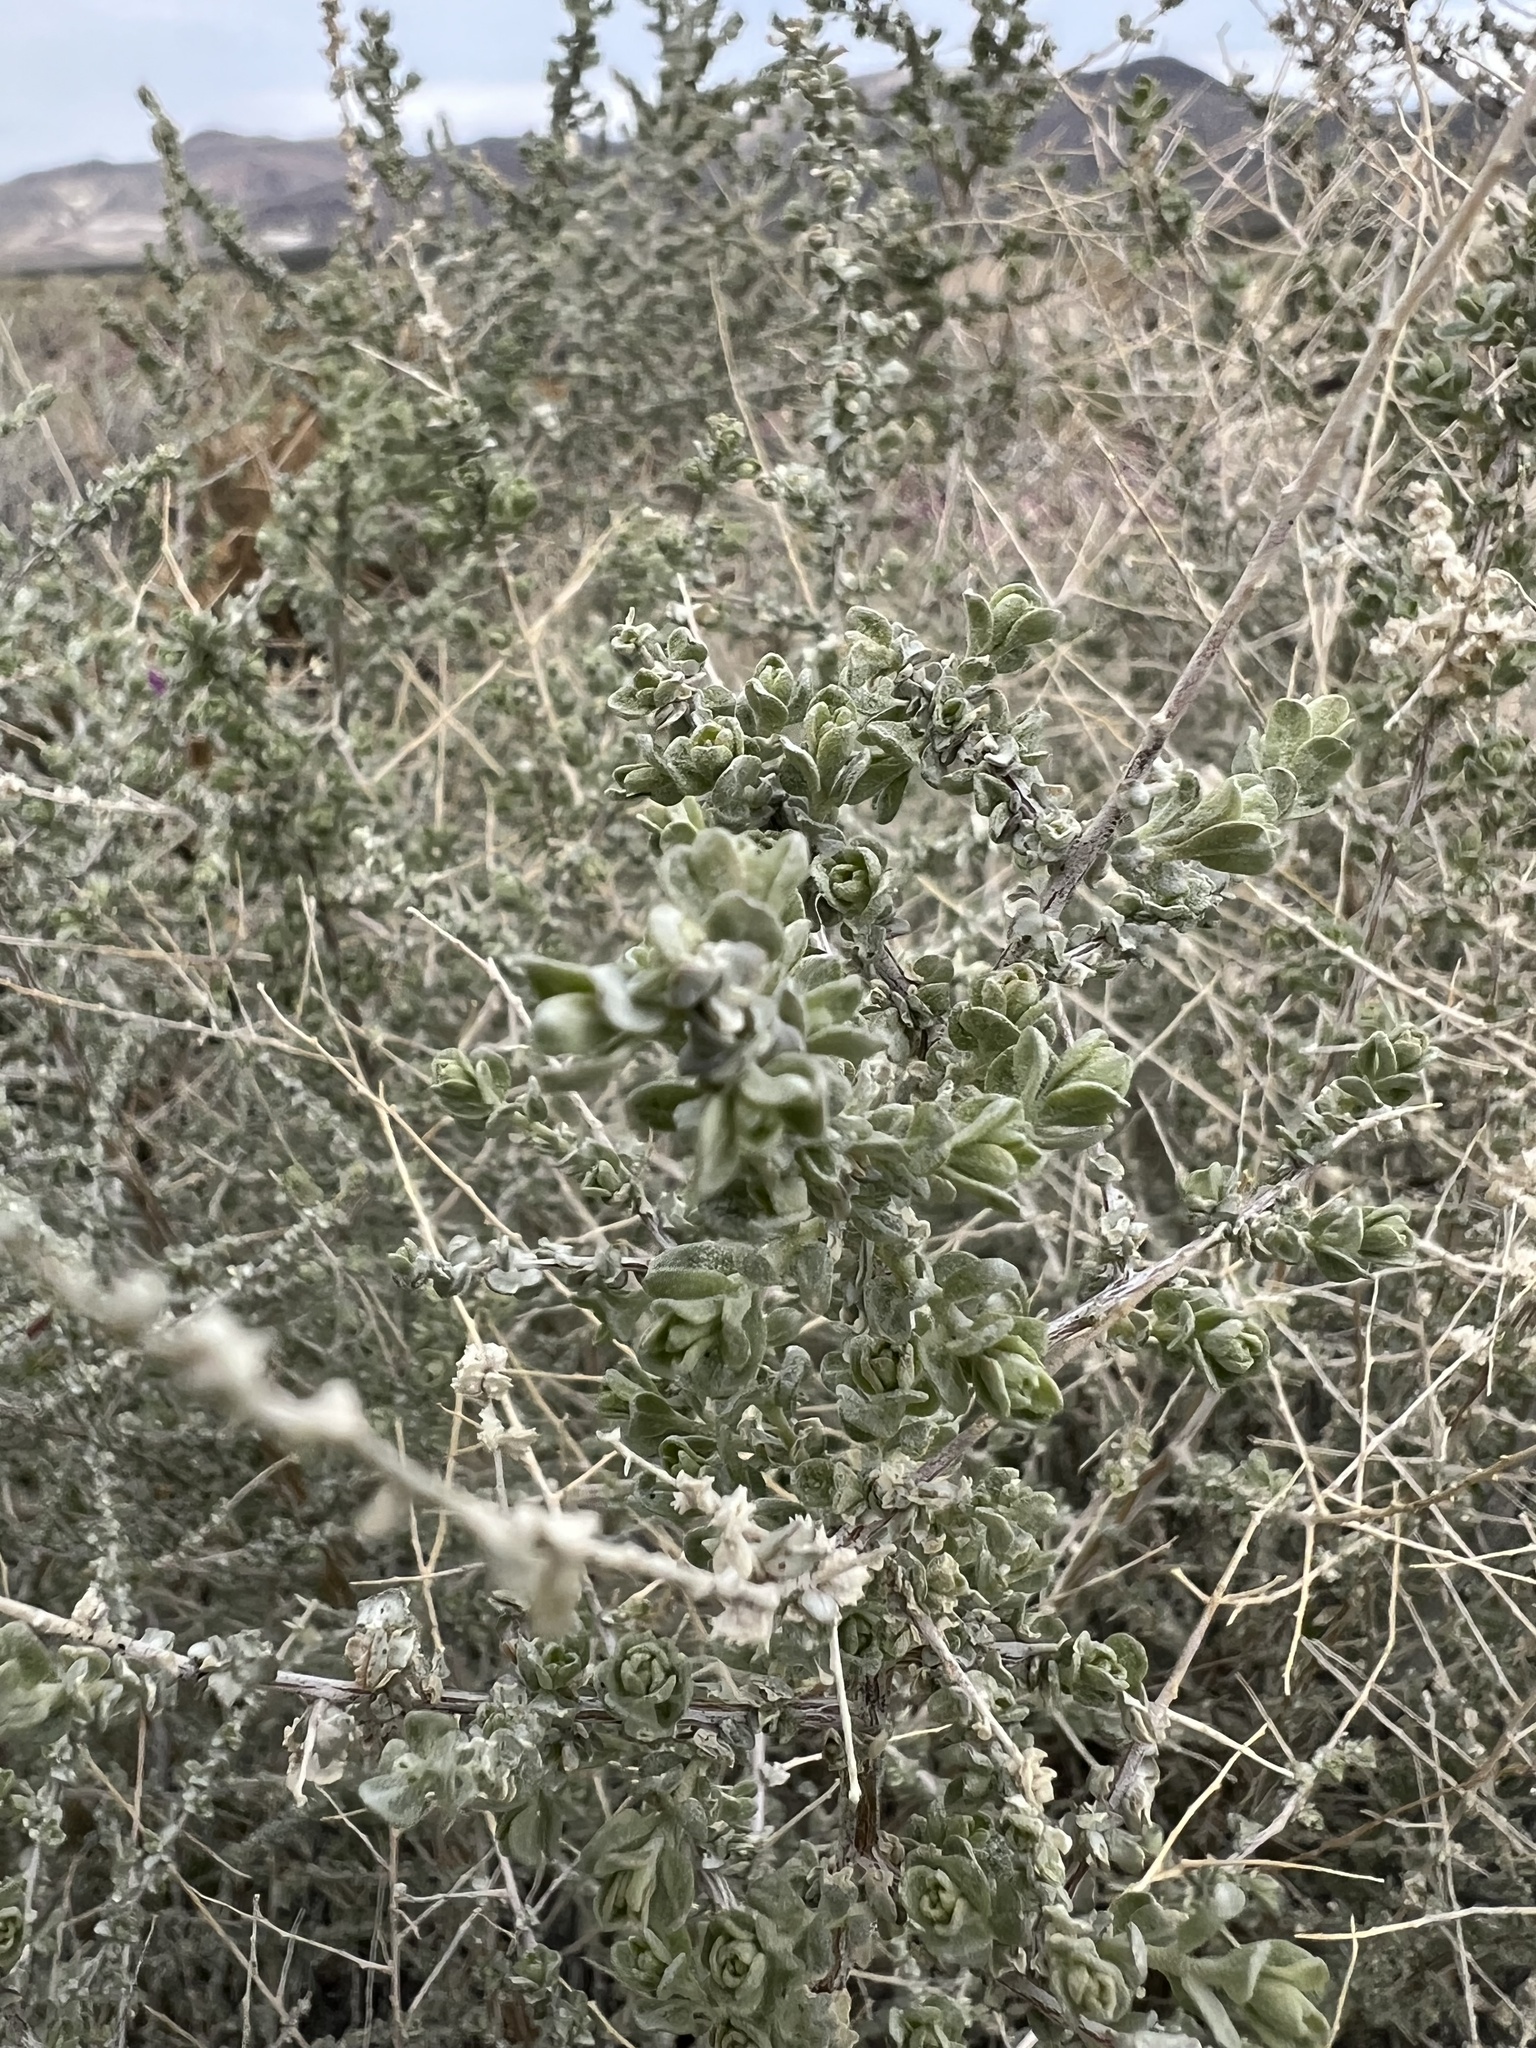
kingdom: Plantae
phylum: Tracheophyta
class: Magnoliopsida
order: Caryophyllales
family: Amaranthaceae
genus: Atriplex
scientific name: Atriplex polycarpa
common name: Desert saltbush
